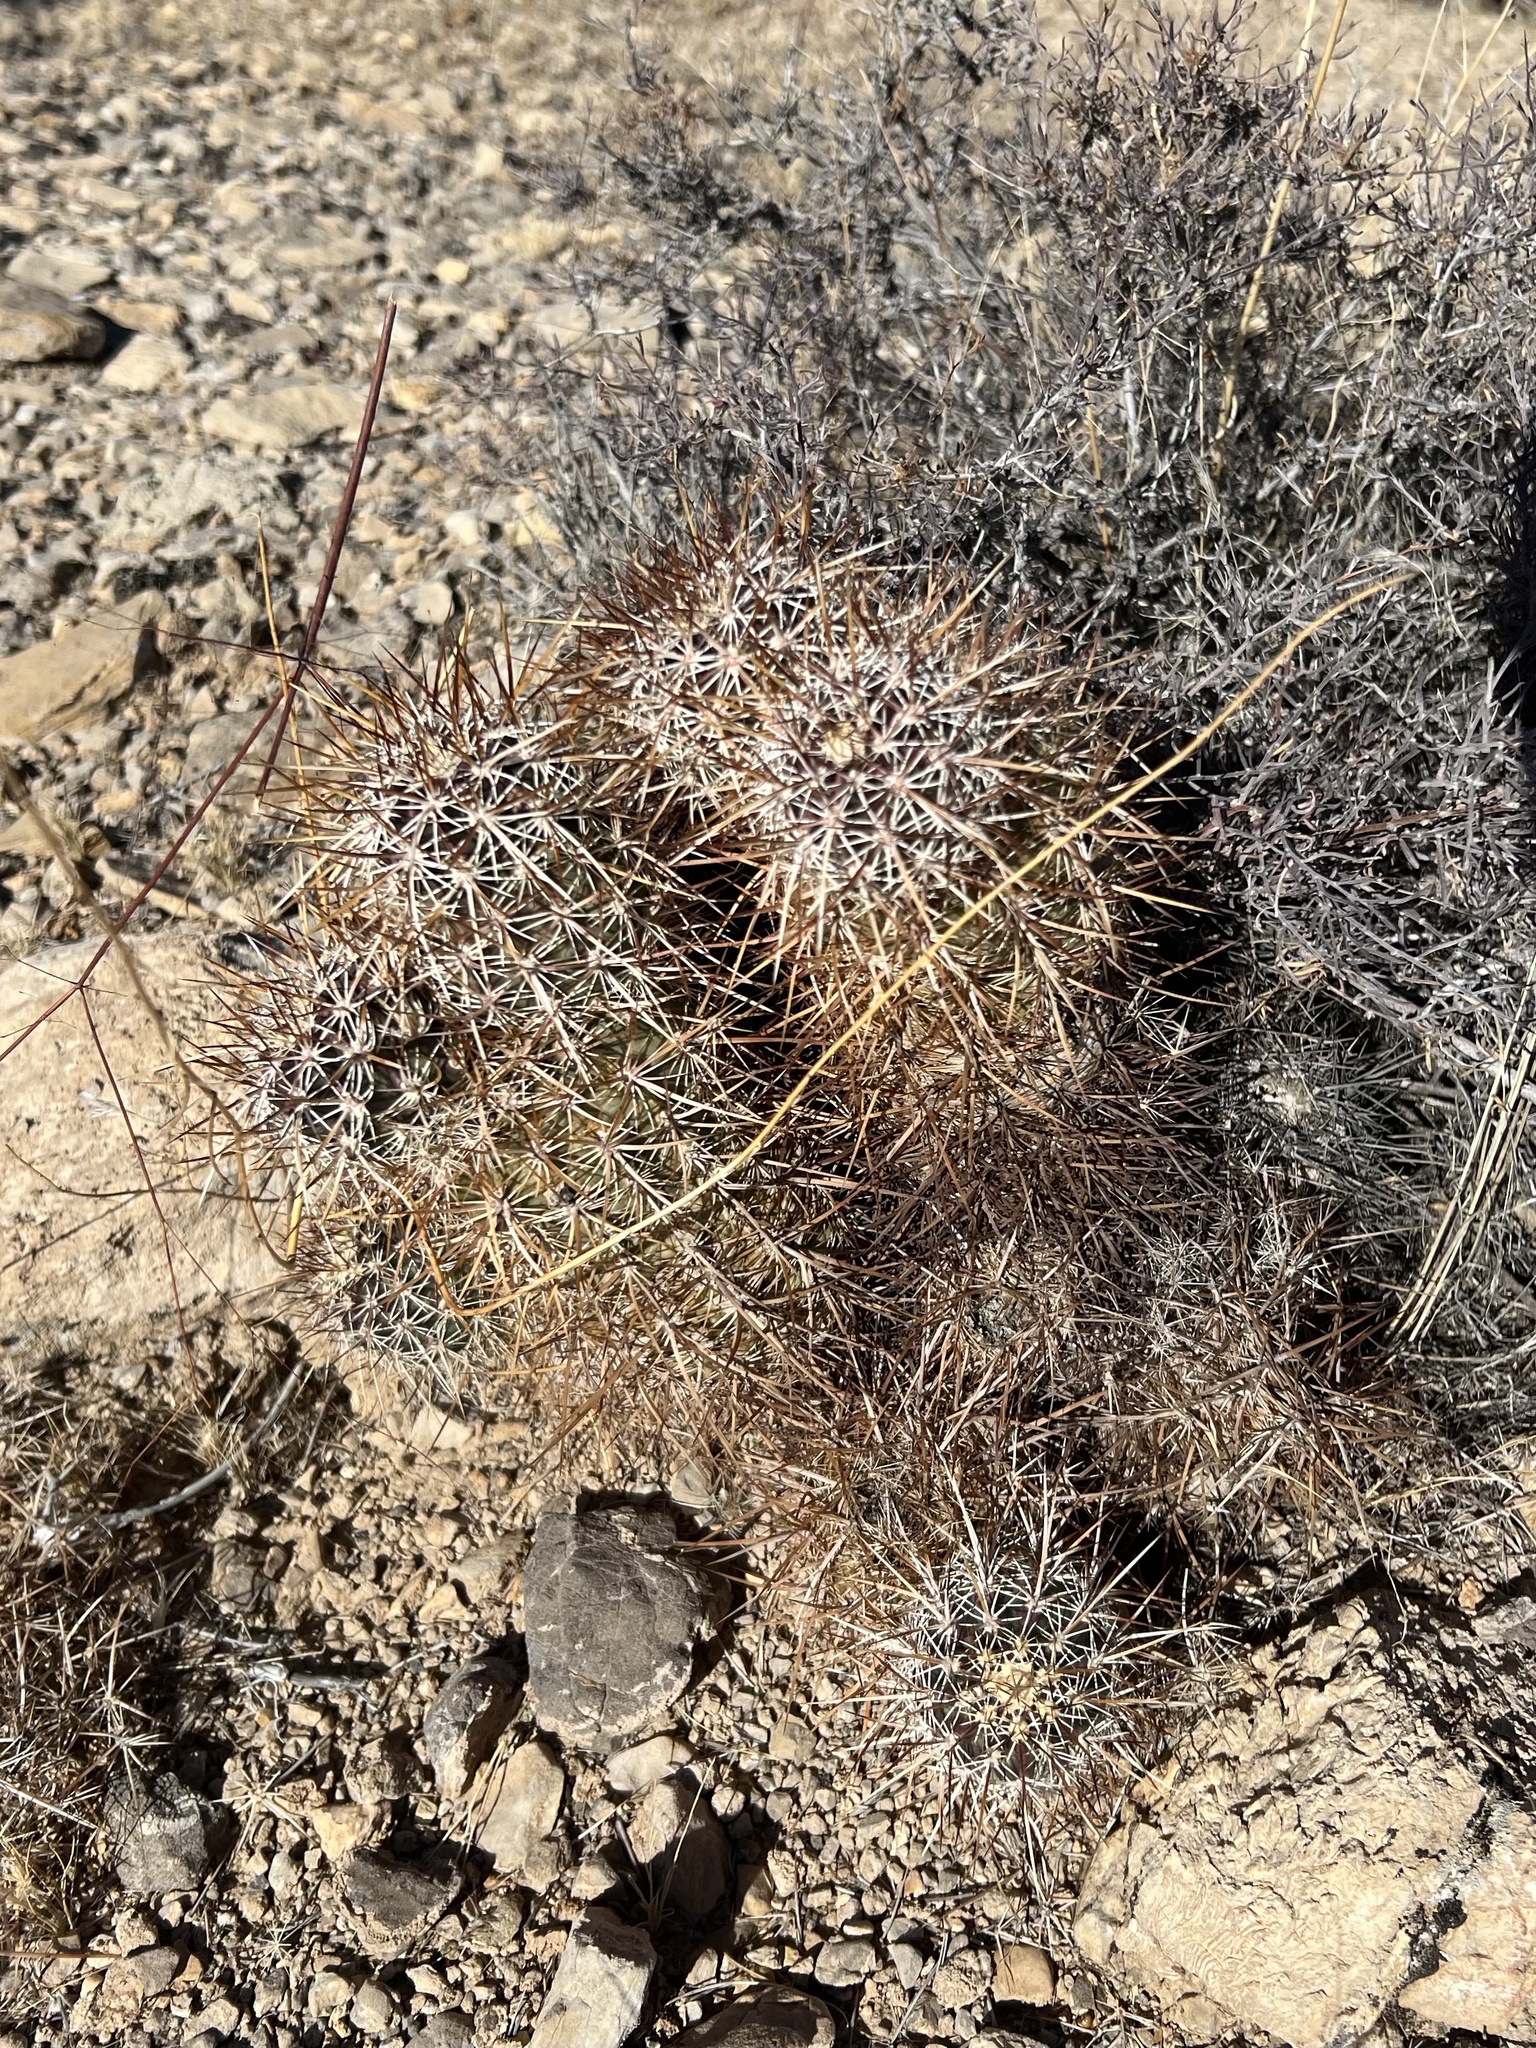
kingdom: Plantae
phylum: Tracheophyta
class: Magnoliopsida
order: Caryophyllales
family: Cactaceae
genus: Echinocereus
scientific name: Echinocereus engelmannii
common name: Engelmann's hedgehog cactus
